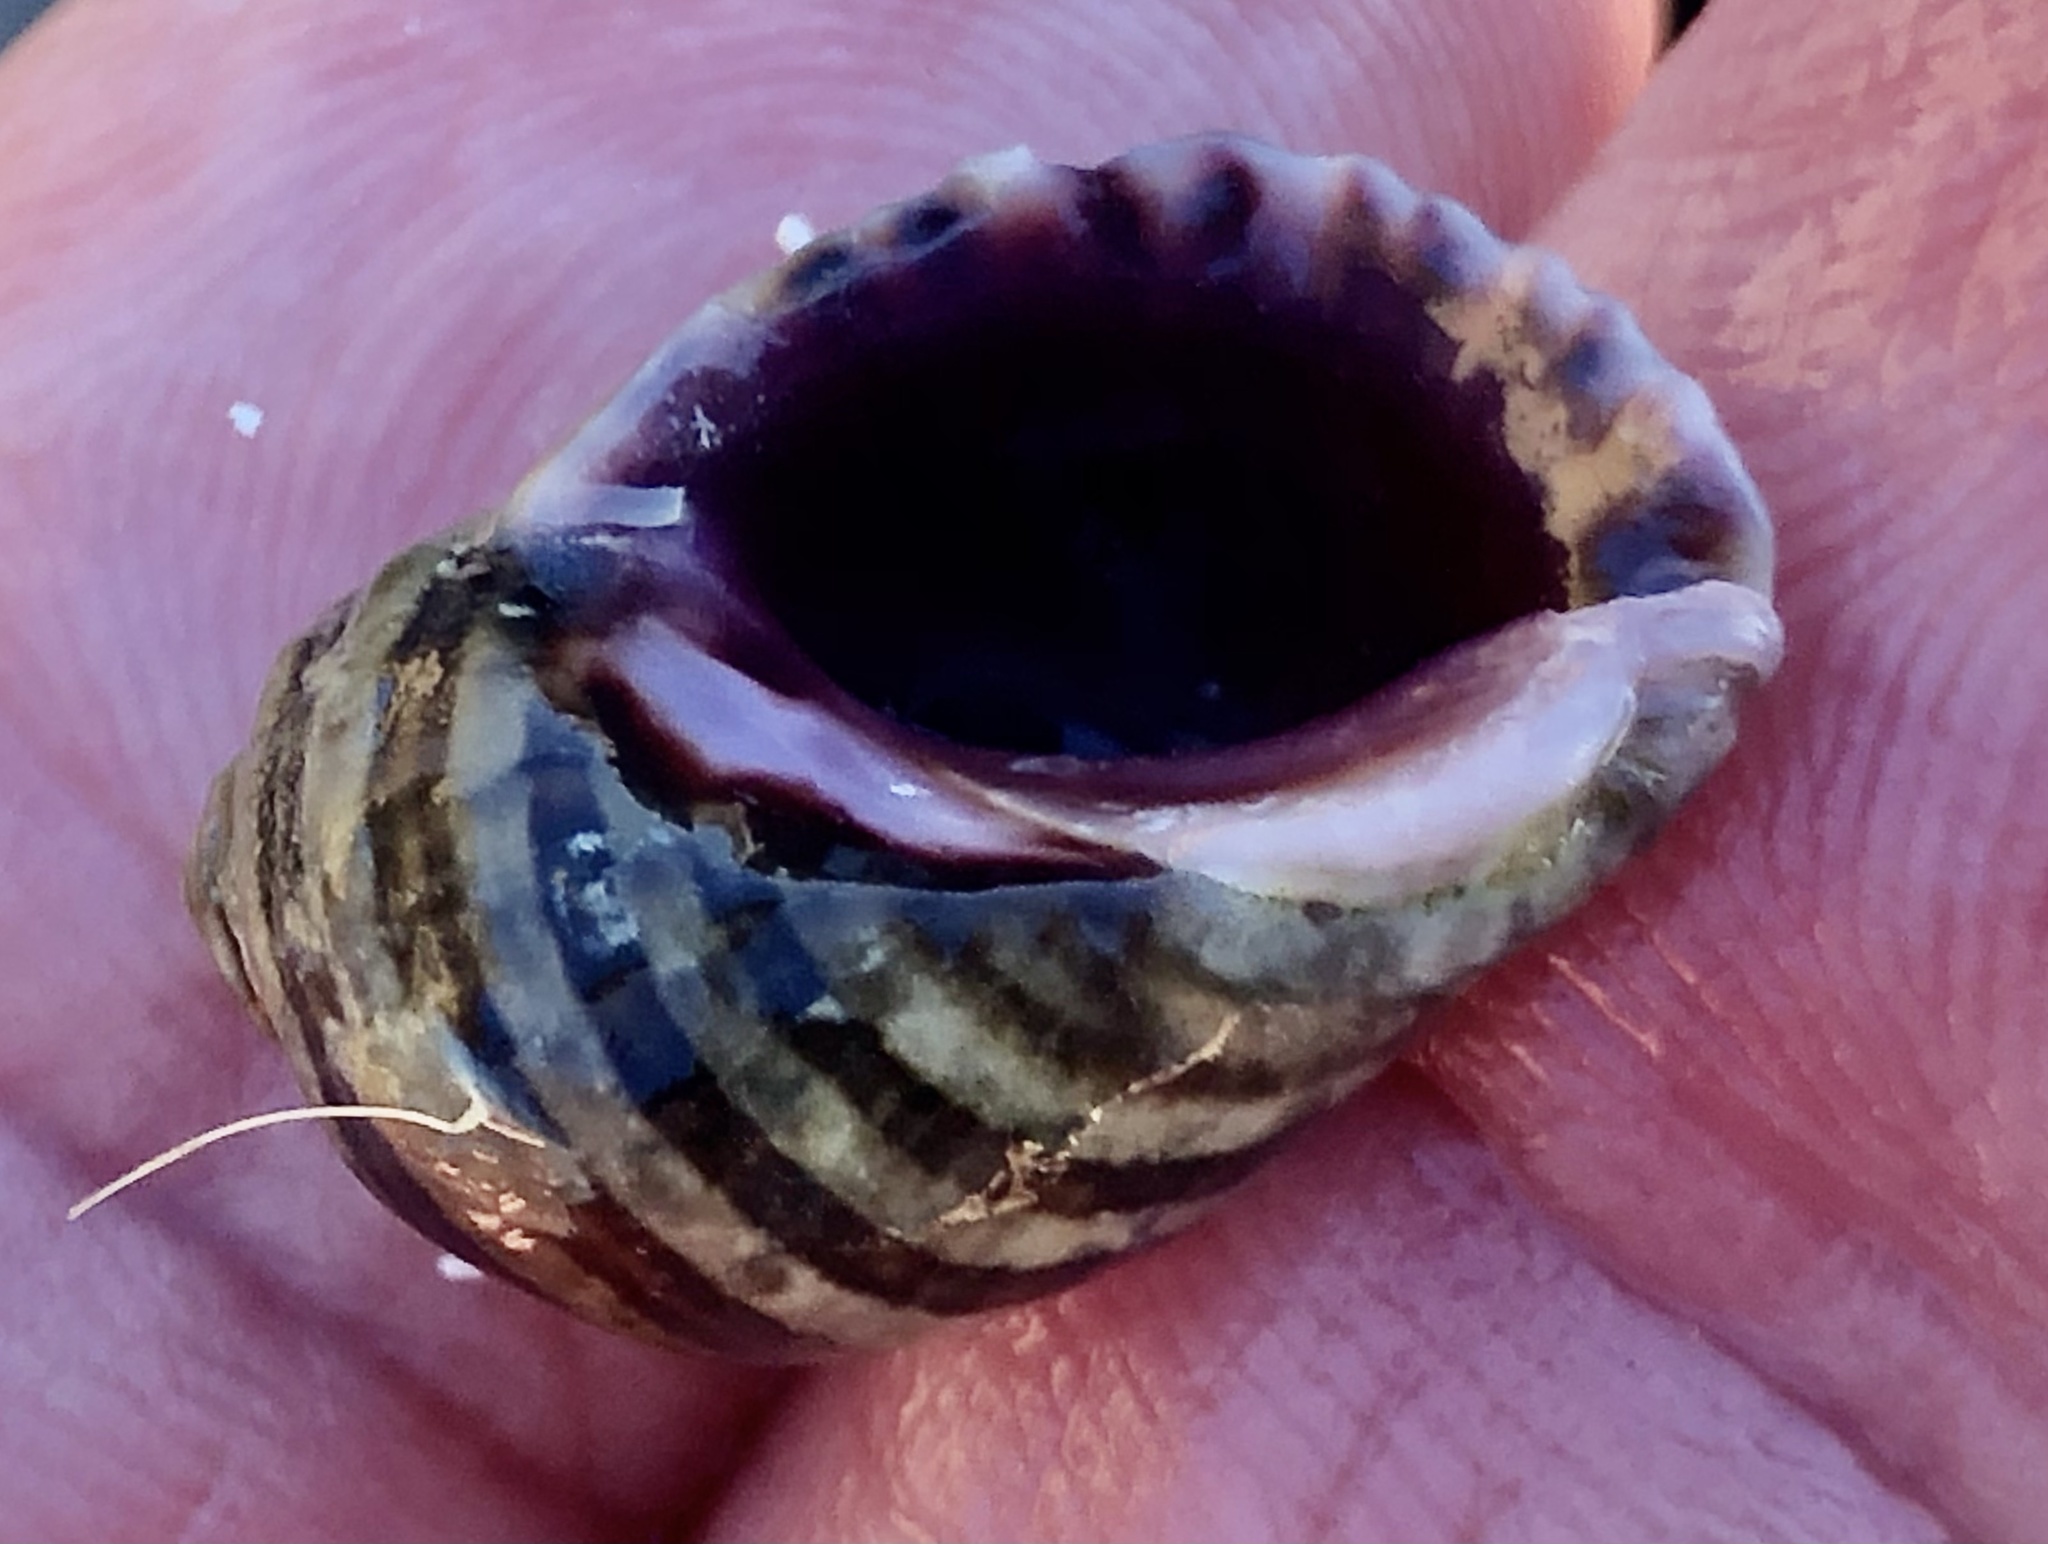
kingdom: Animalia
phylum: Mollusca
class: Gastropoda
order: Neogastropoda
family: Muricidae
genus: Nucella
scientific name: Nucella ostrina
